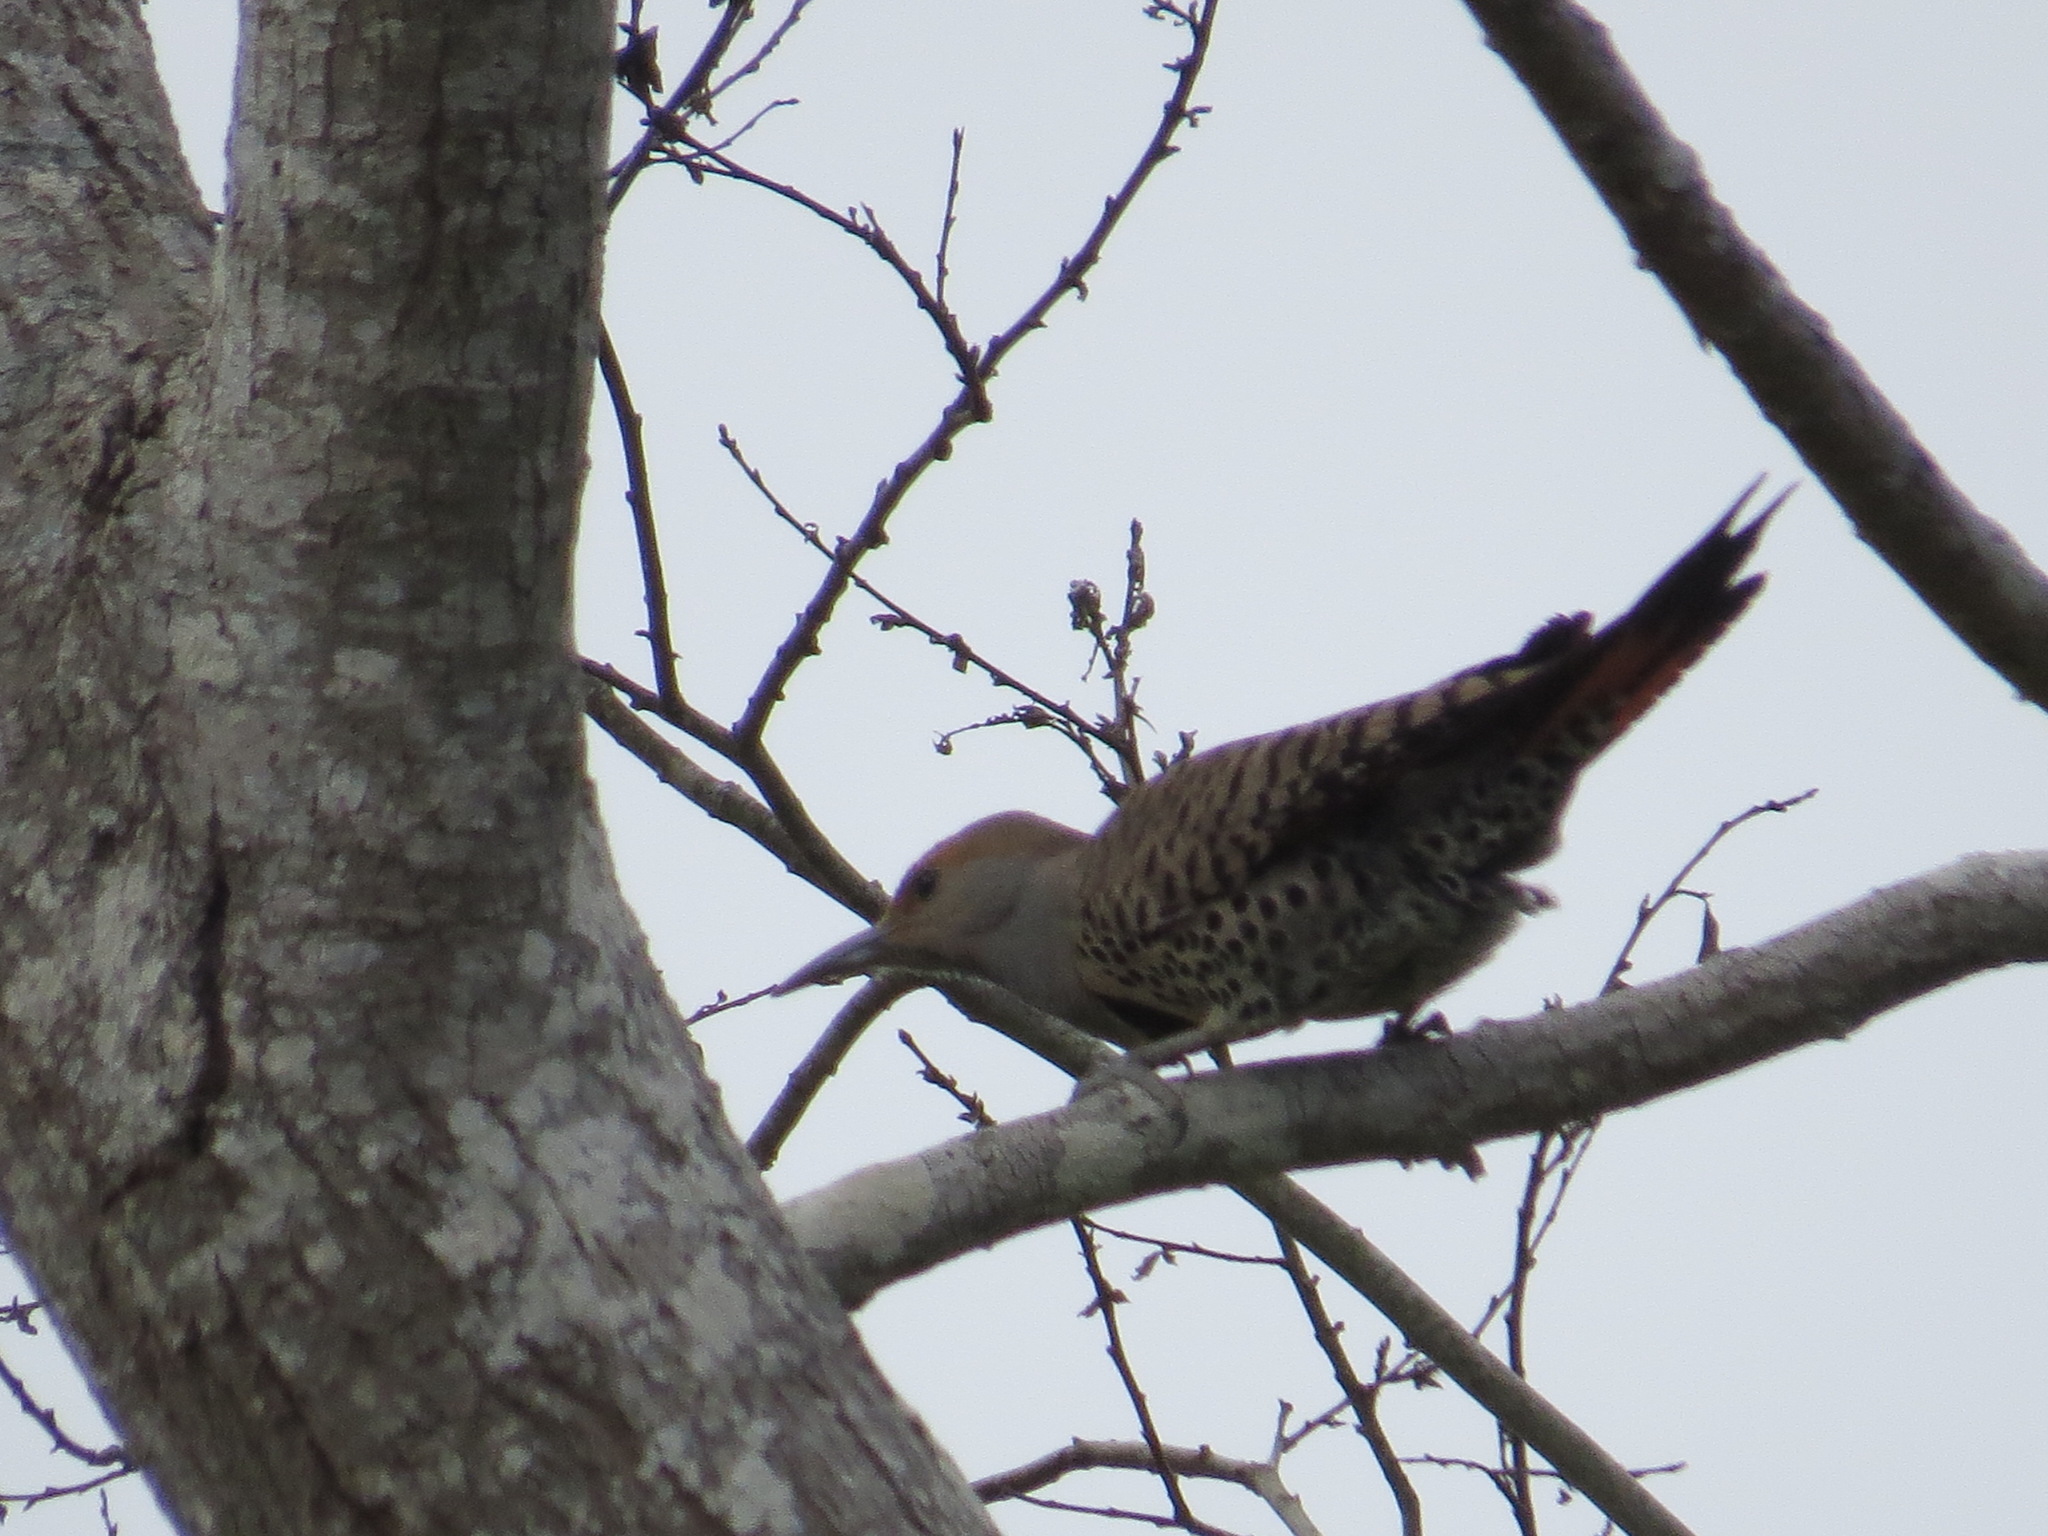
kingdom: Animalia
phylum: Chordata
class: Aves
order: Piciformes
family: Picidae
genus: Colaptes
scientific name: Colaptes auratus
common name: Northern flicker
